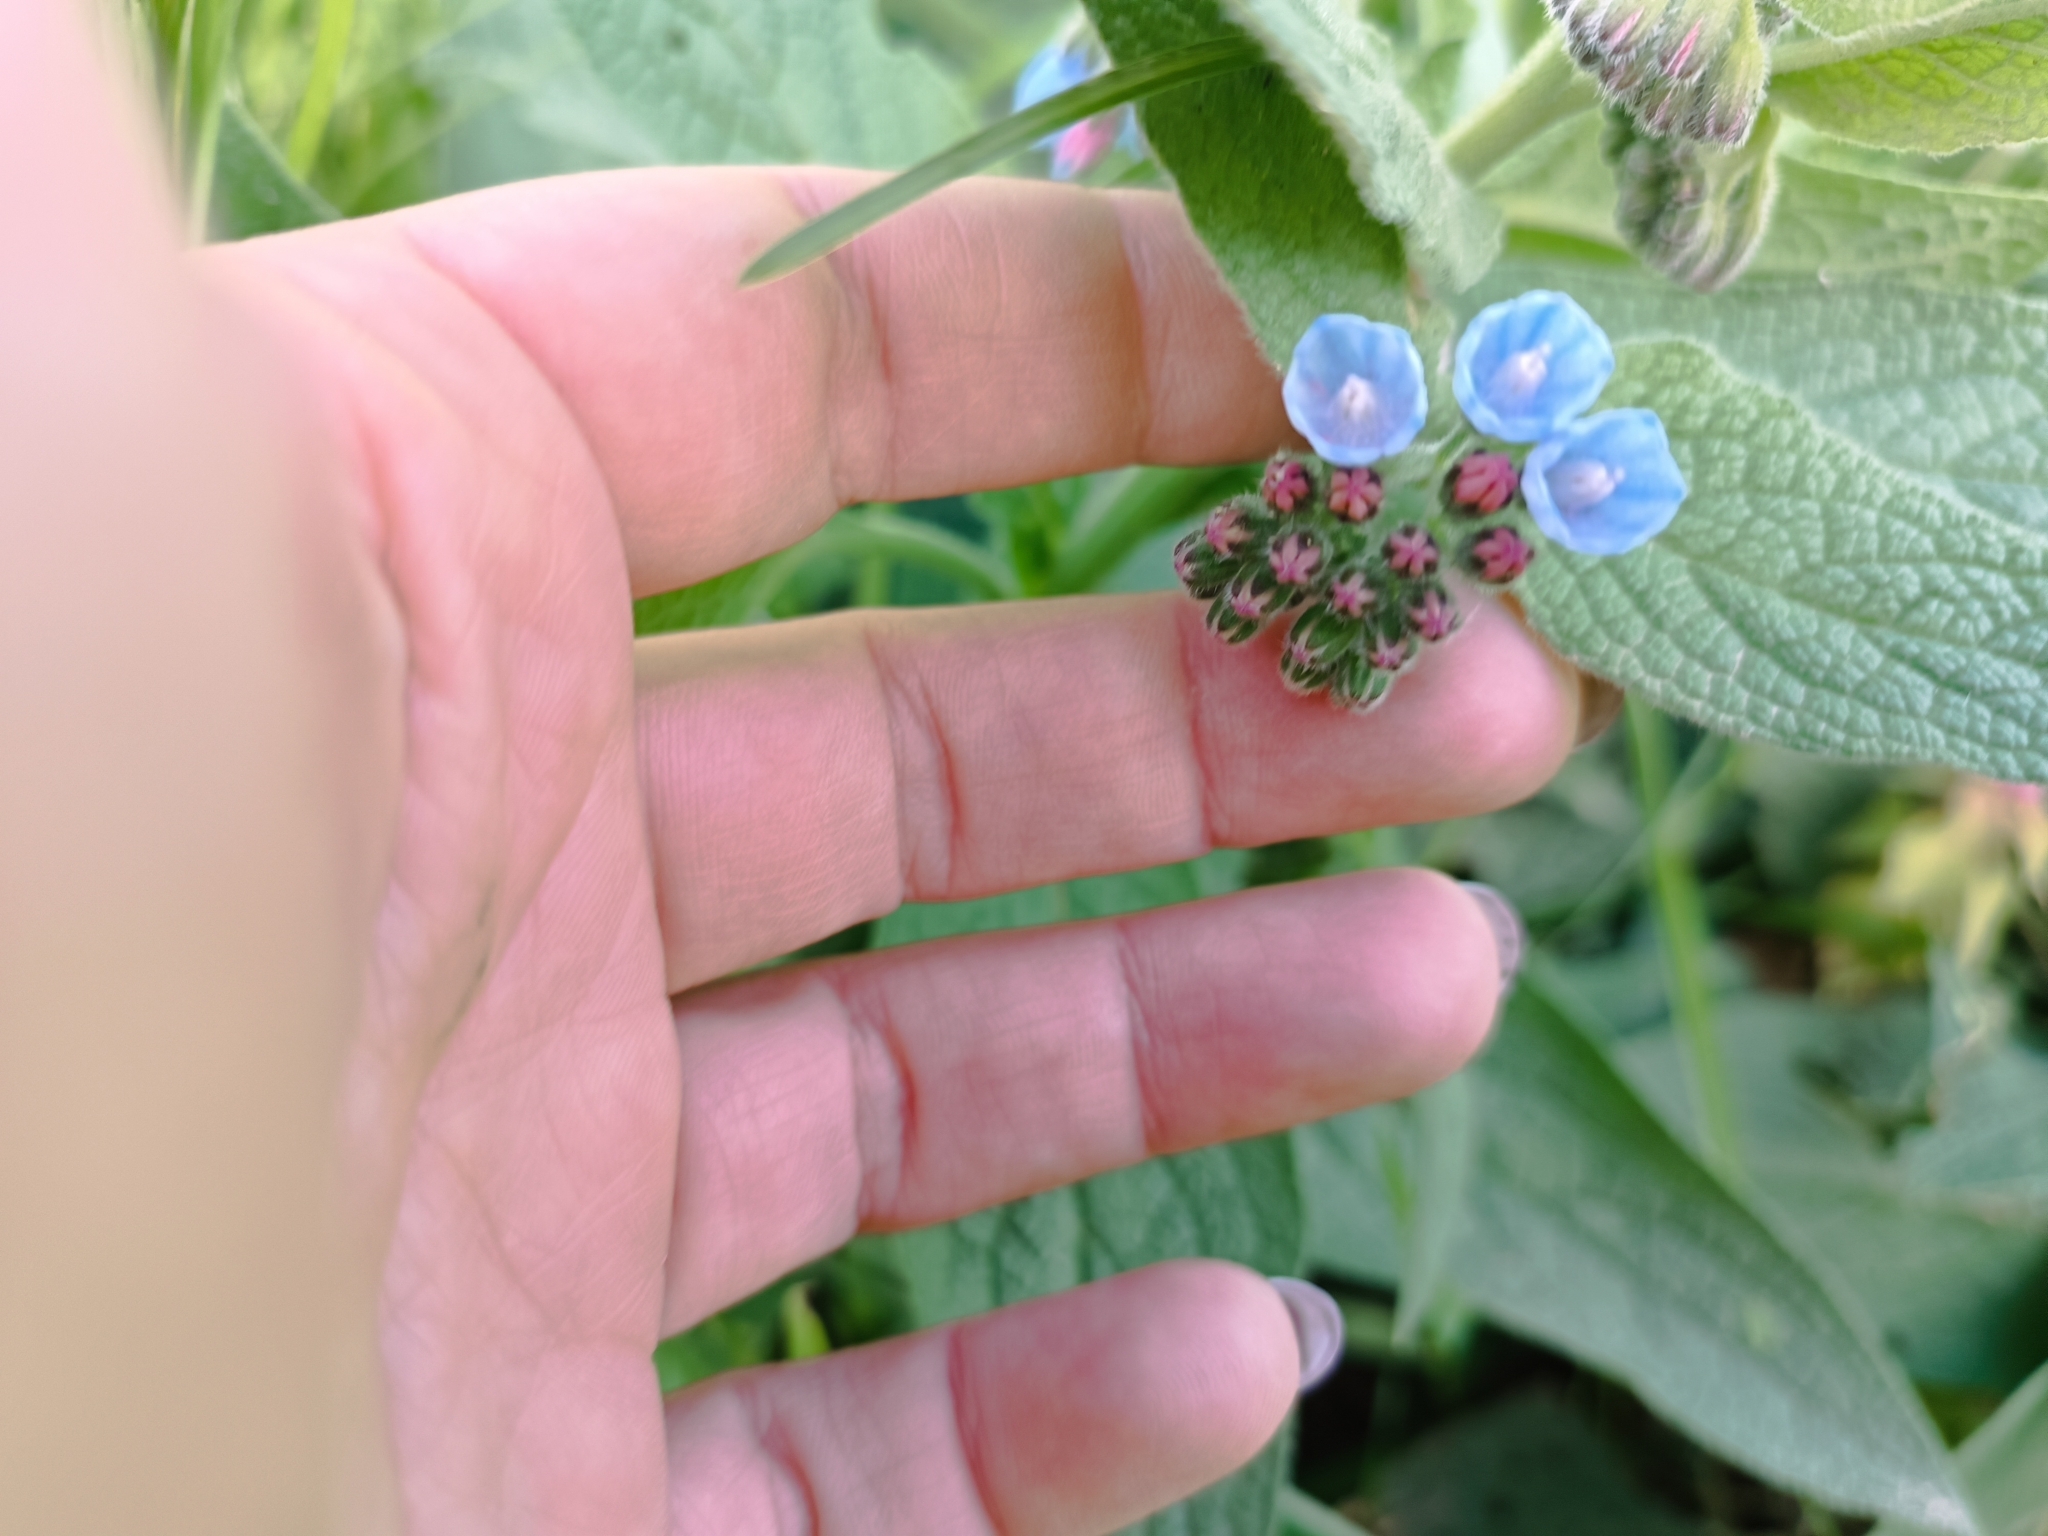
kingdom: Plantae
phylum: Tracheophyta
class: Magnoliopsida
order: Boraginales
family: Boraginaceae
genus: Symphytum
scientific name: Symphytum caucasicum
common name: Caucasian comfrey
